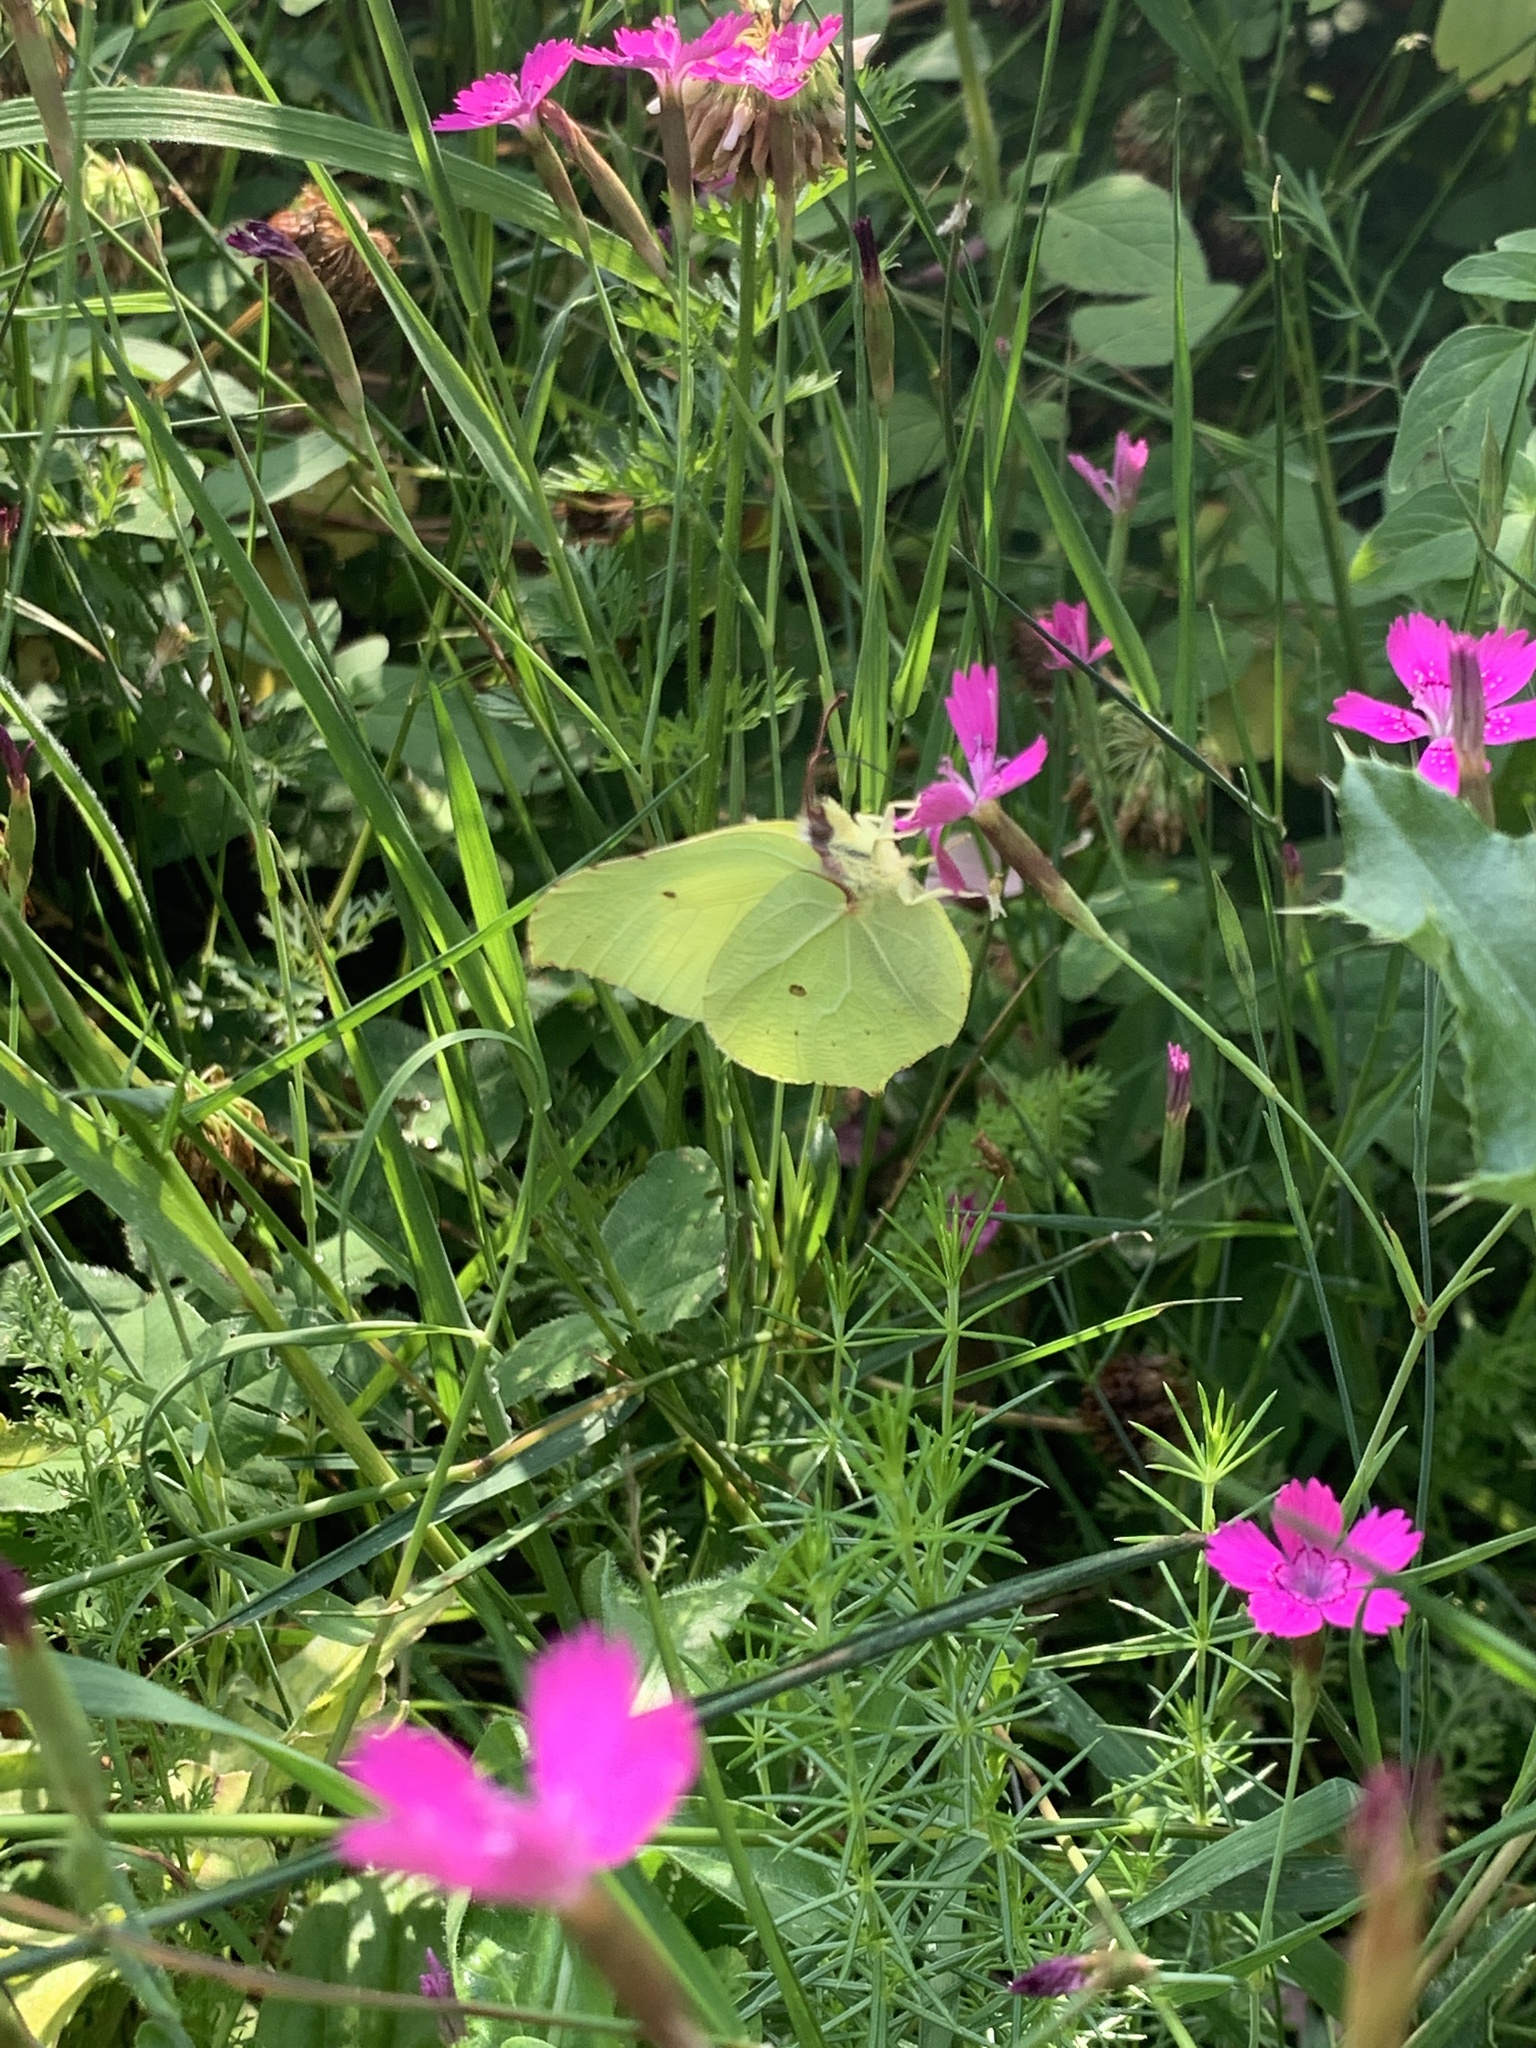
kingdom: Animalia
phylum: Arthropoda
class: Insecta
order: Lepidoptera
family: Pieridae
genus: Gonepteryx
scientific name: Gonepteryx rhamni
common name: Brimstone
